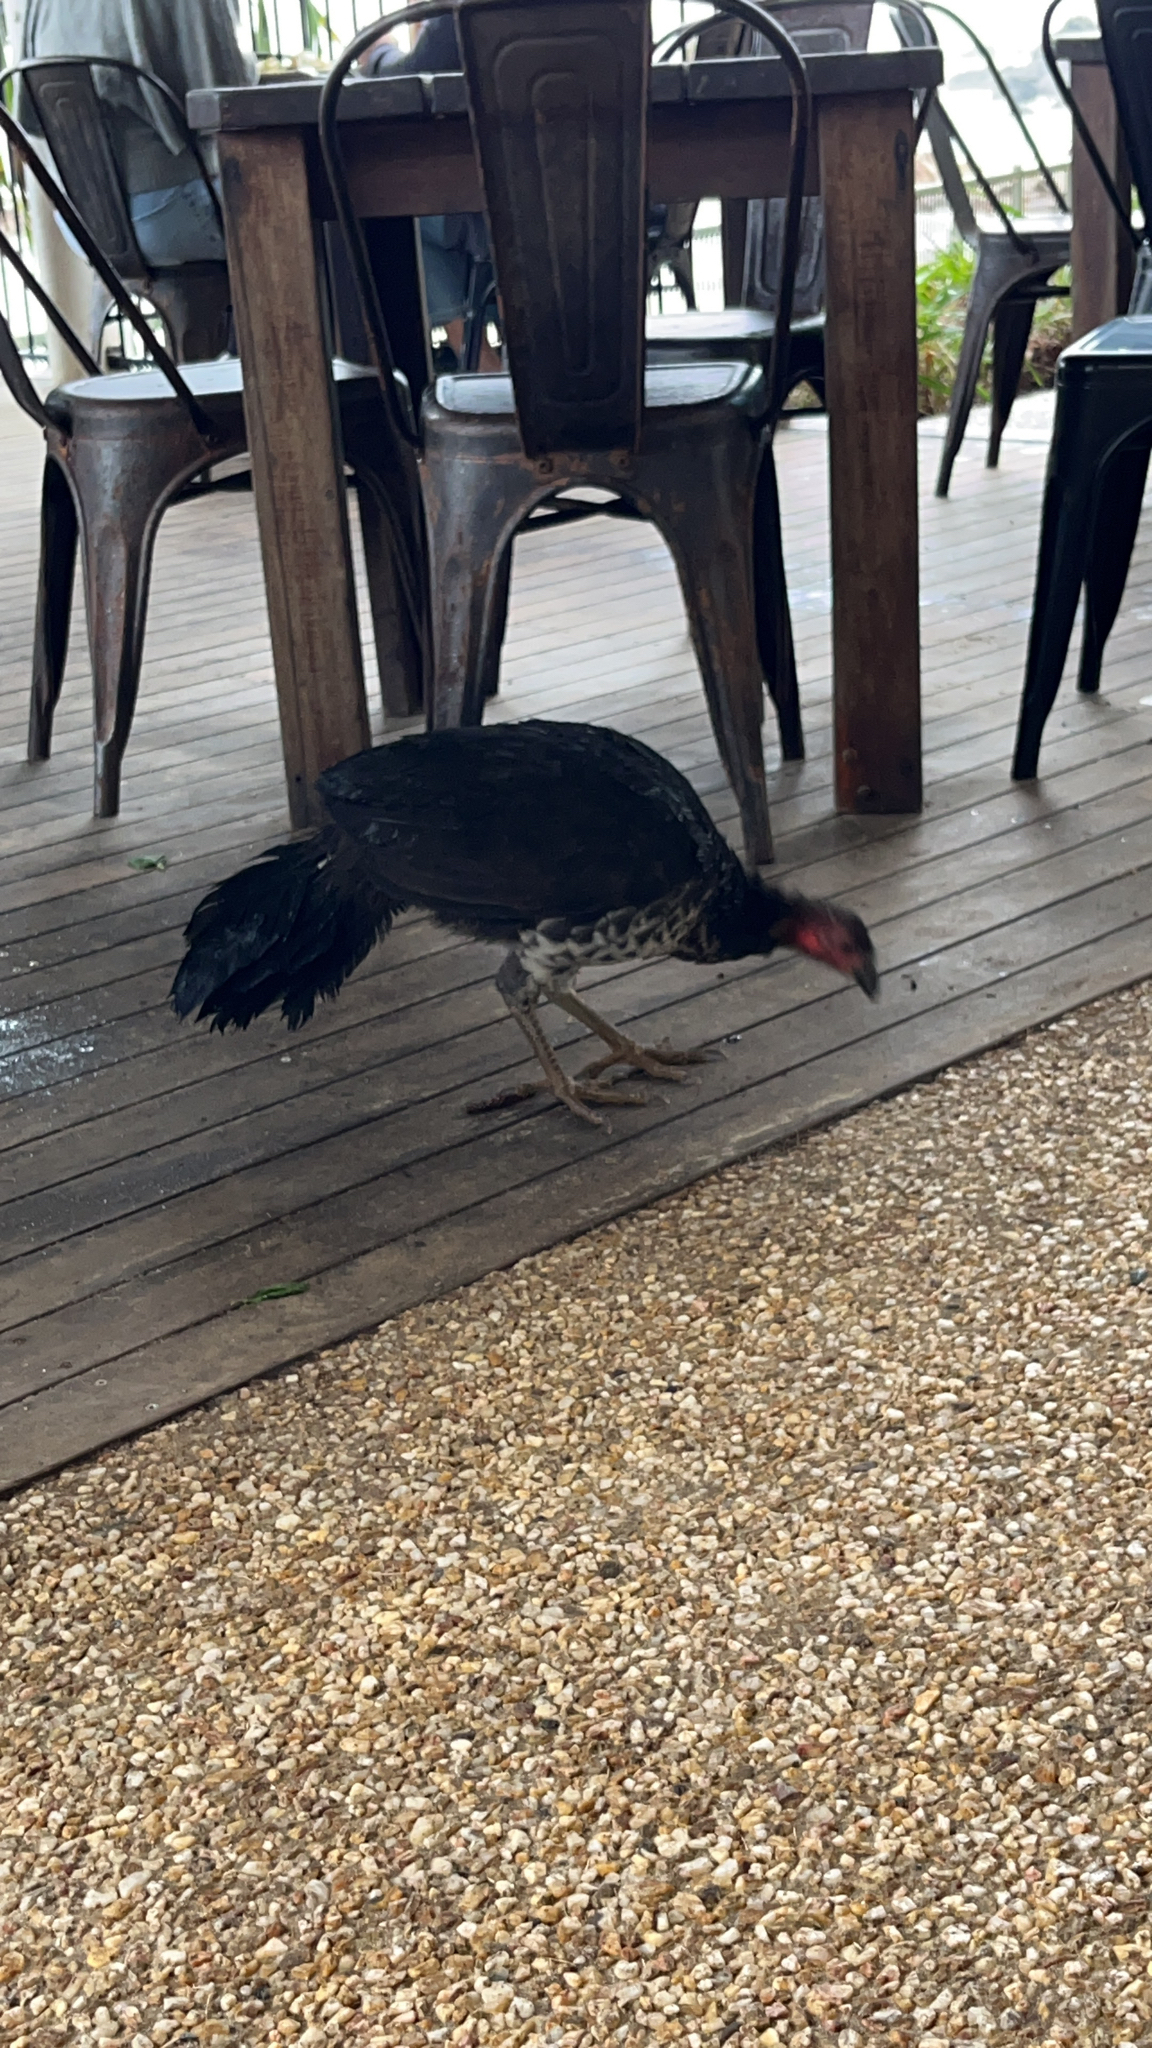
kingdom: Animalia
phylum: Chordata
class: Aves
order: Galliformes
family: Megapodiidae
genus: Alectura
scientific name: Alectura lathami
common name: Australian brushturkey
